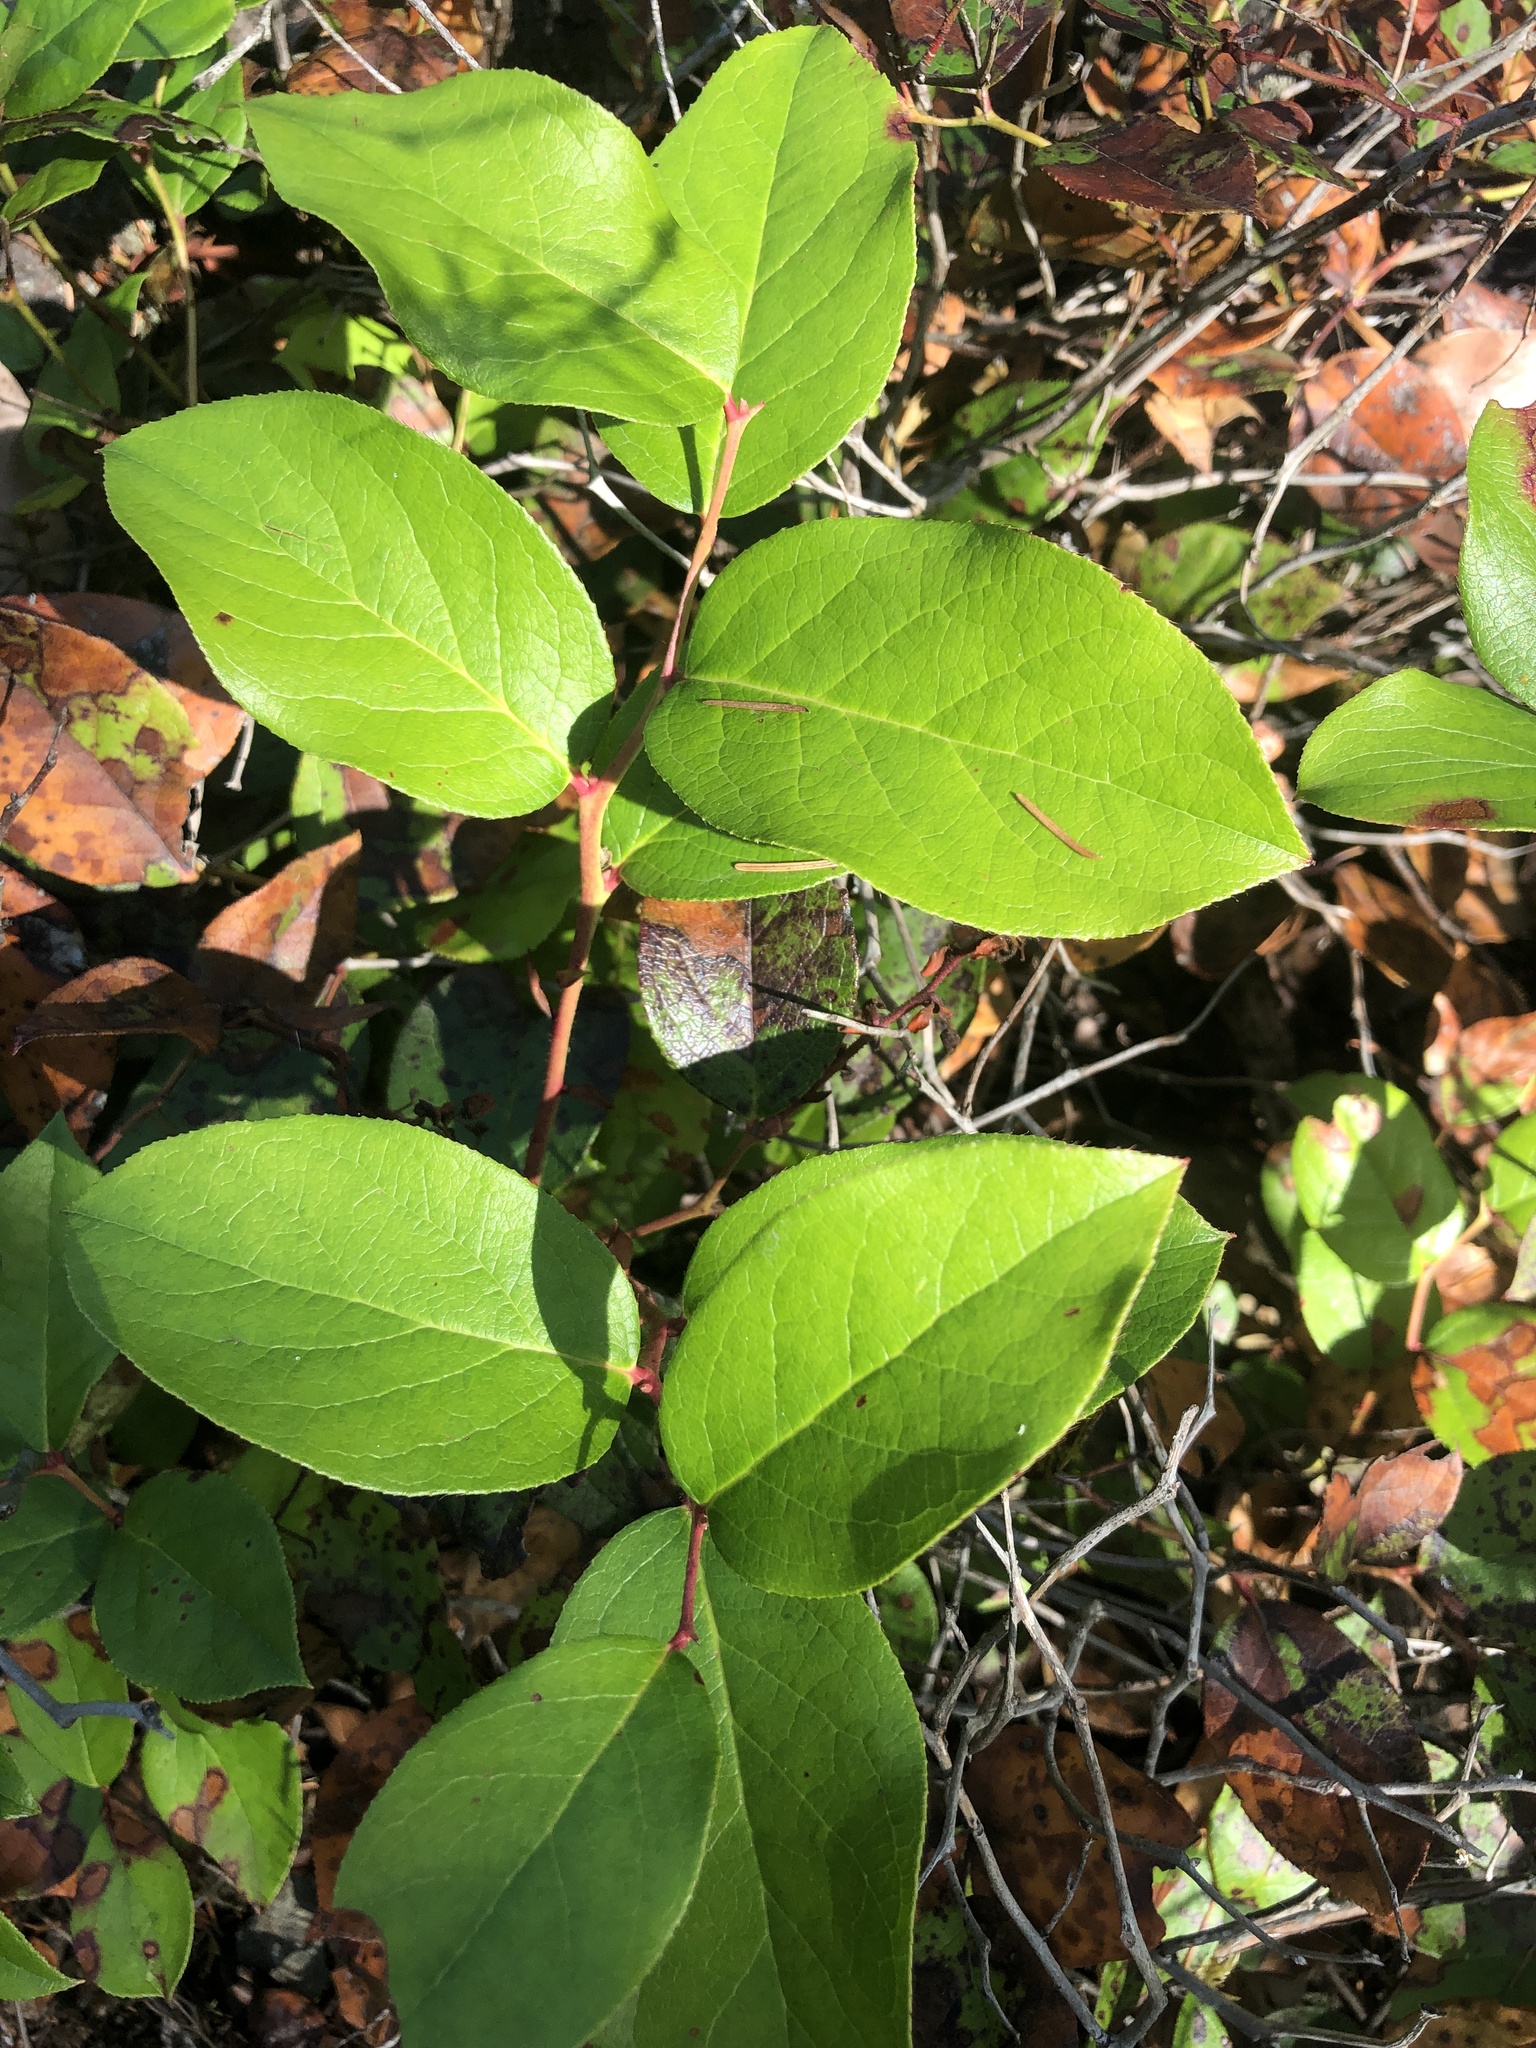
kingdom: Plantae
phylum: Tracheophyta
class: Magnoliopsida
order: Ericales
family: Ericaceae
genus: Gaultheria
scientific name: Gaultheria shallon
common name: Shallon
